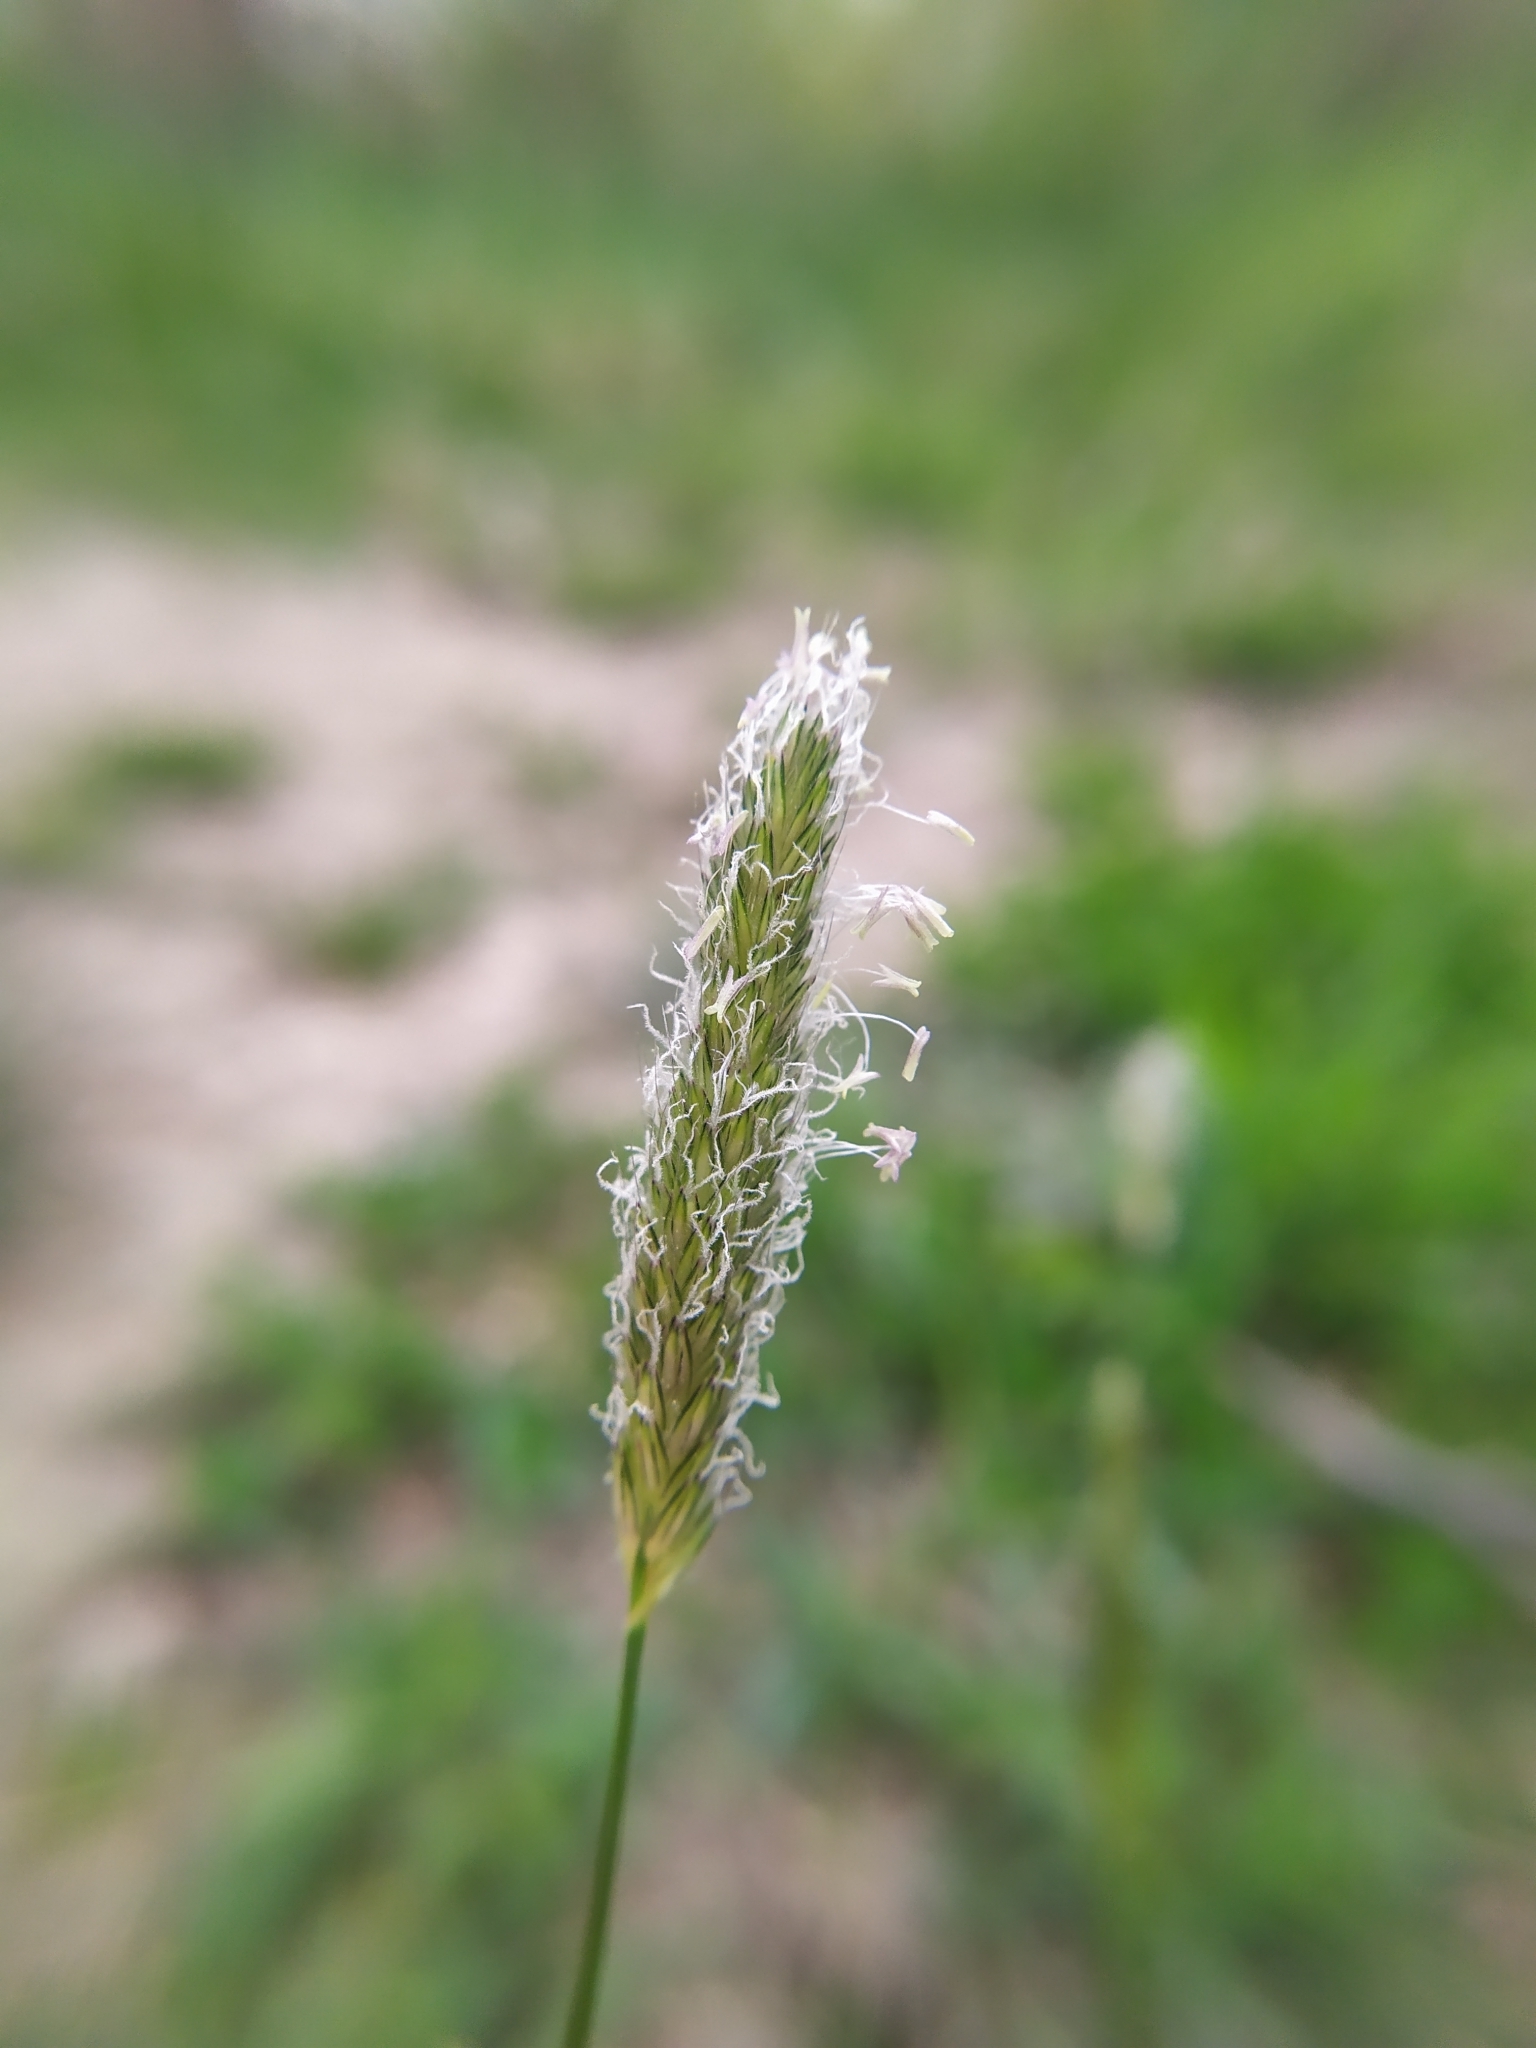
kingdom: Plantae
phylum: Tracheophyta
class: Liliopsida
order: Poales
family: Poaceae
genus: Alopecurus
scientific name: Alopecurus pratensis
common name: Meadow foxtail
